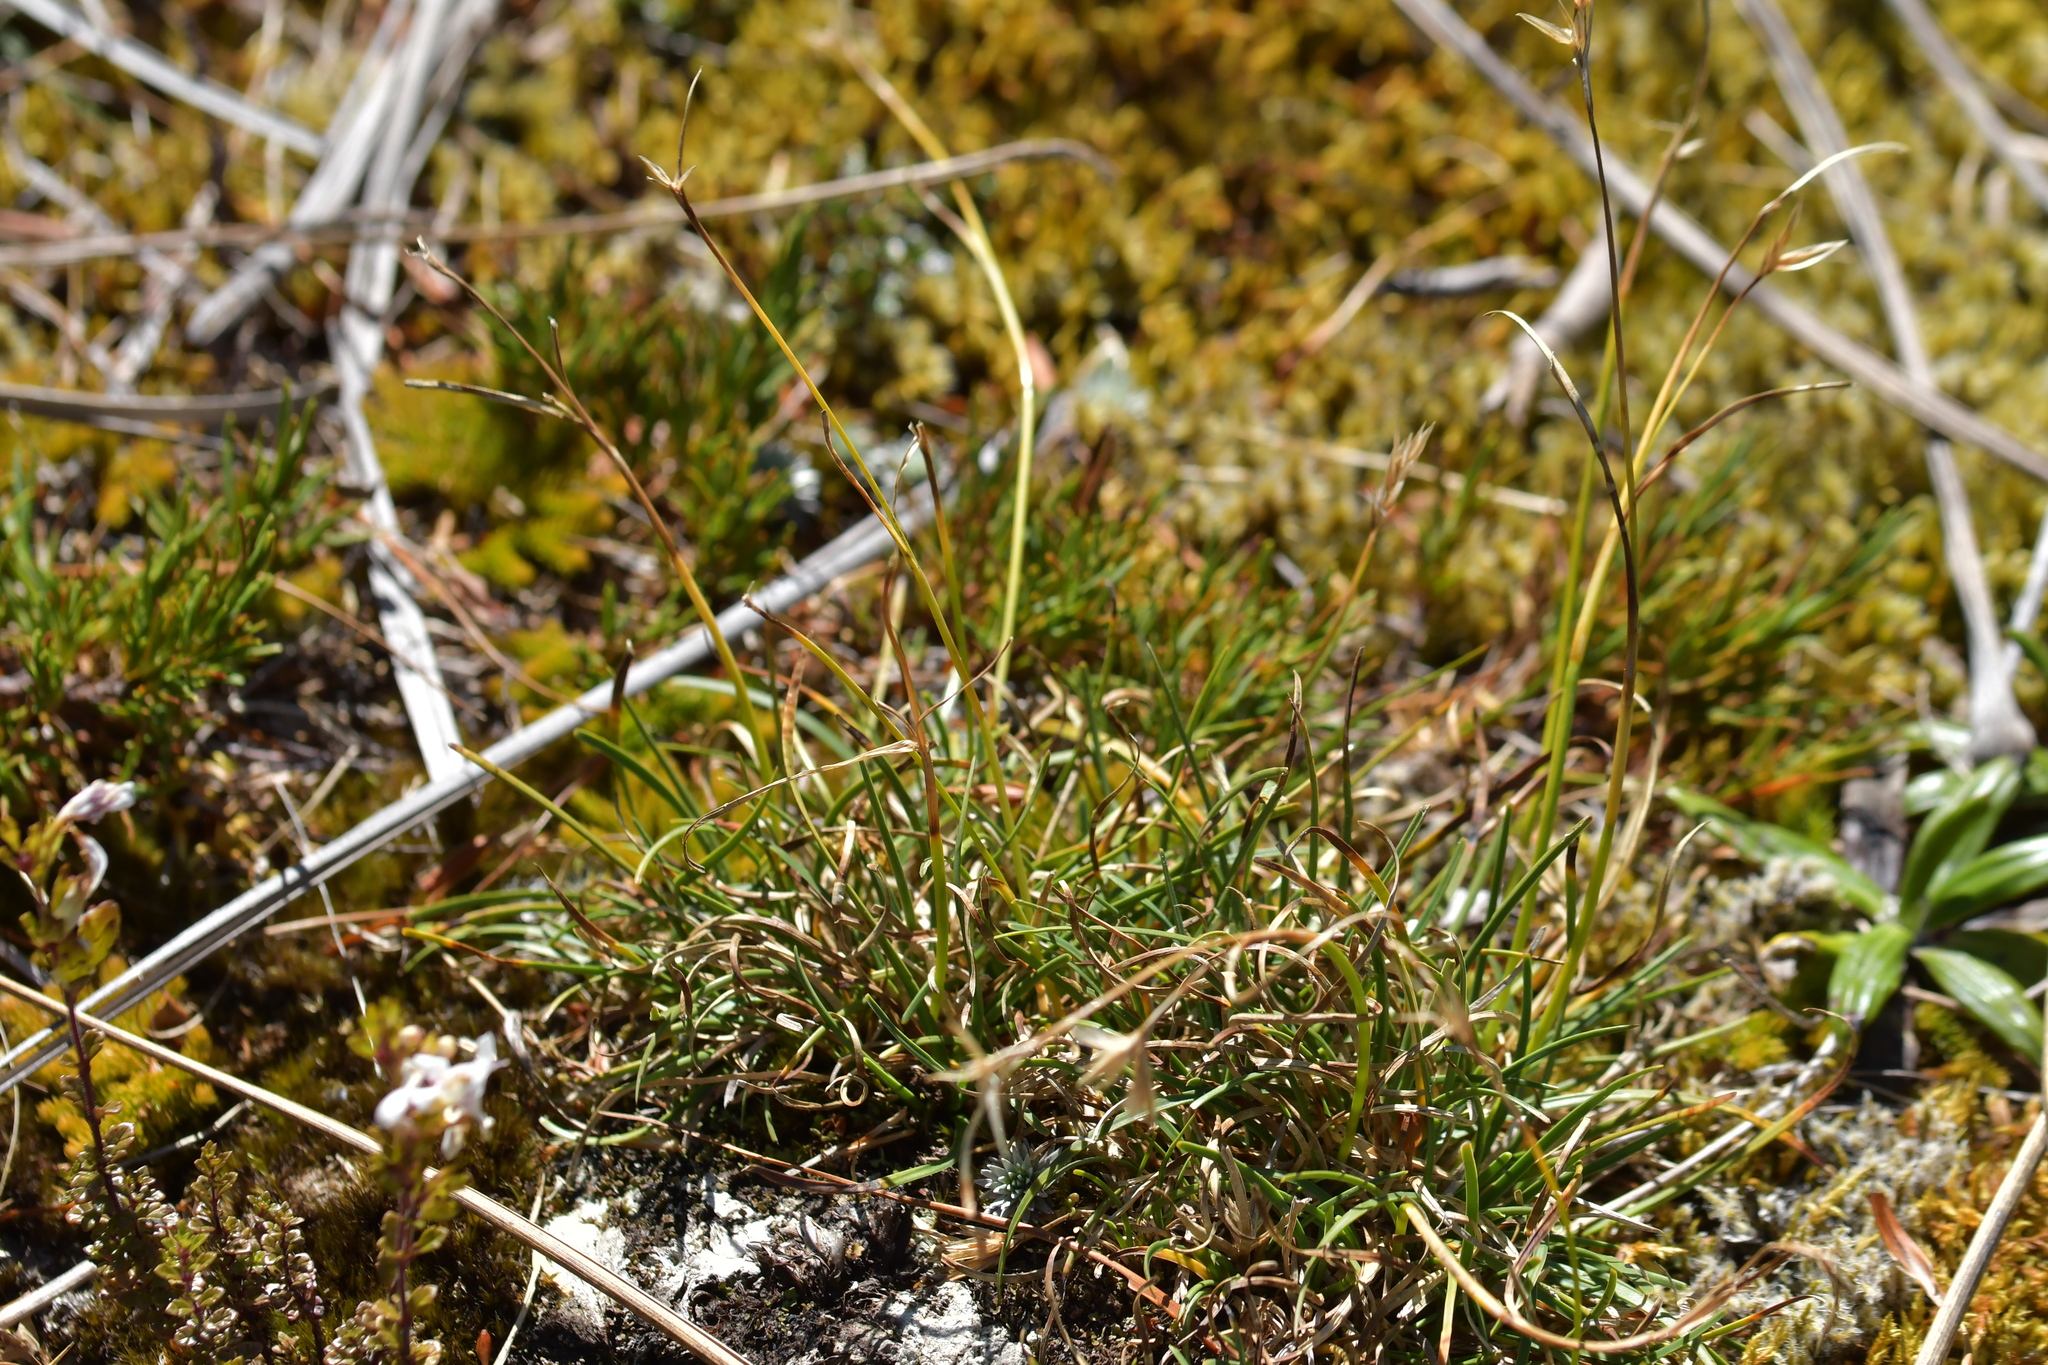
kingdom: Plantae
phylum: Tracheophyta
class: Liliopsida
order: Poales
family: Cyperaceae
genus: Carpha
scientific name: Carpha alpina
